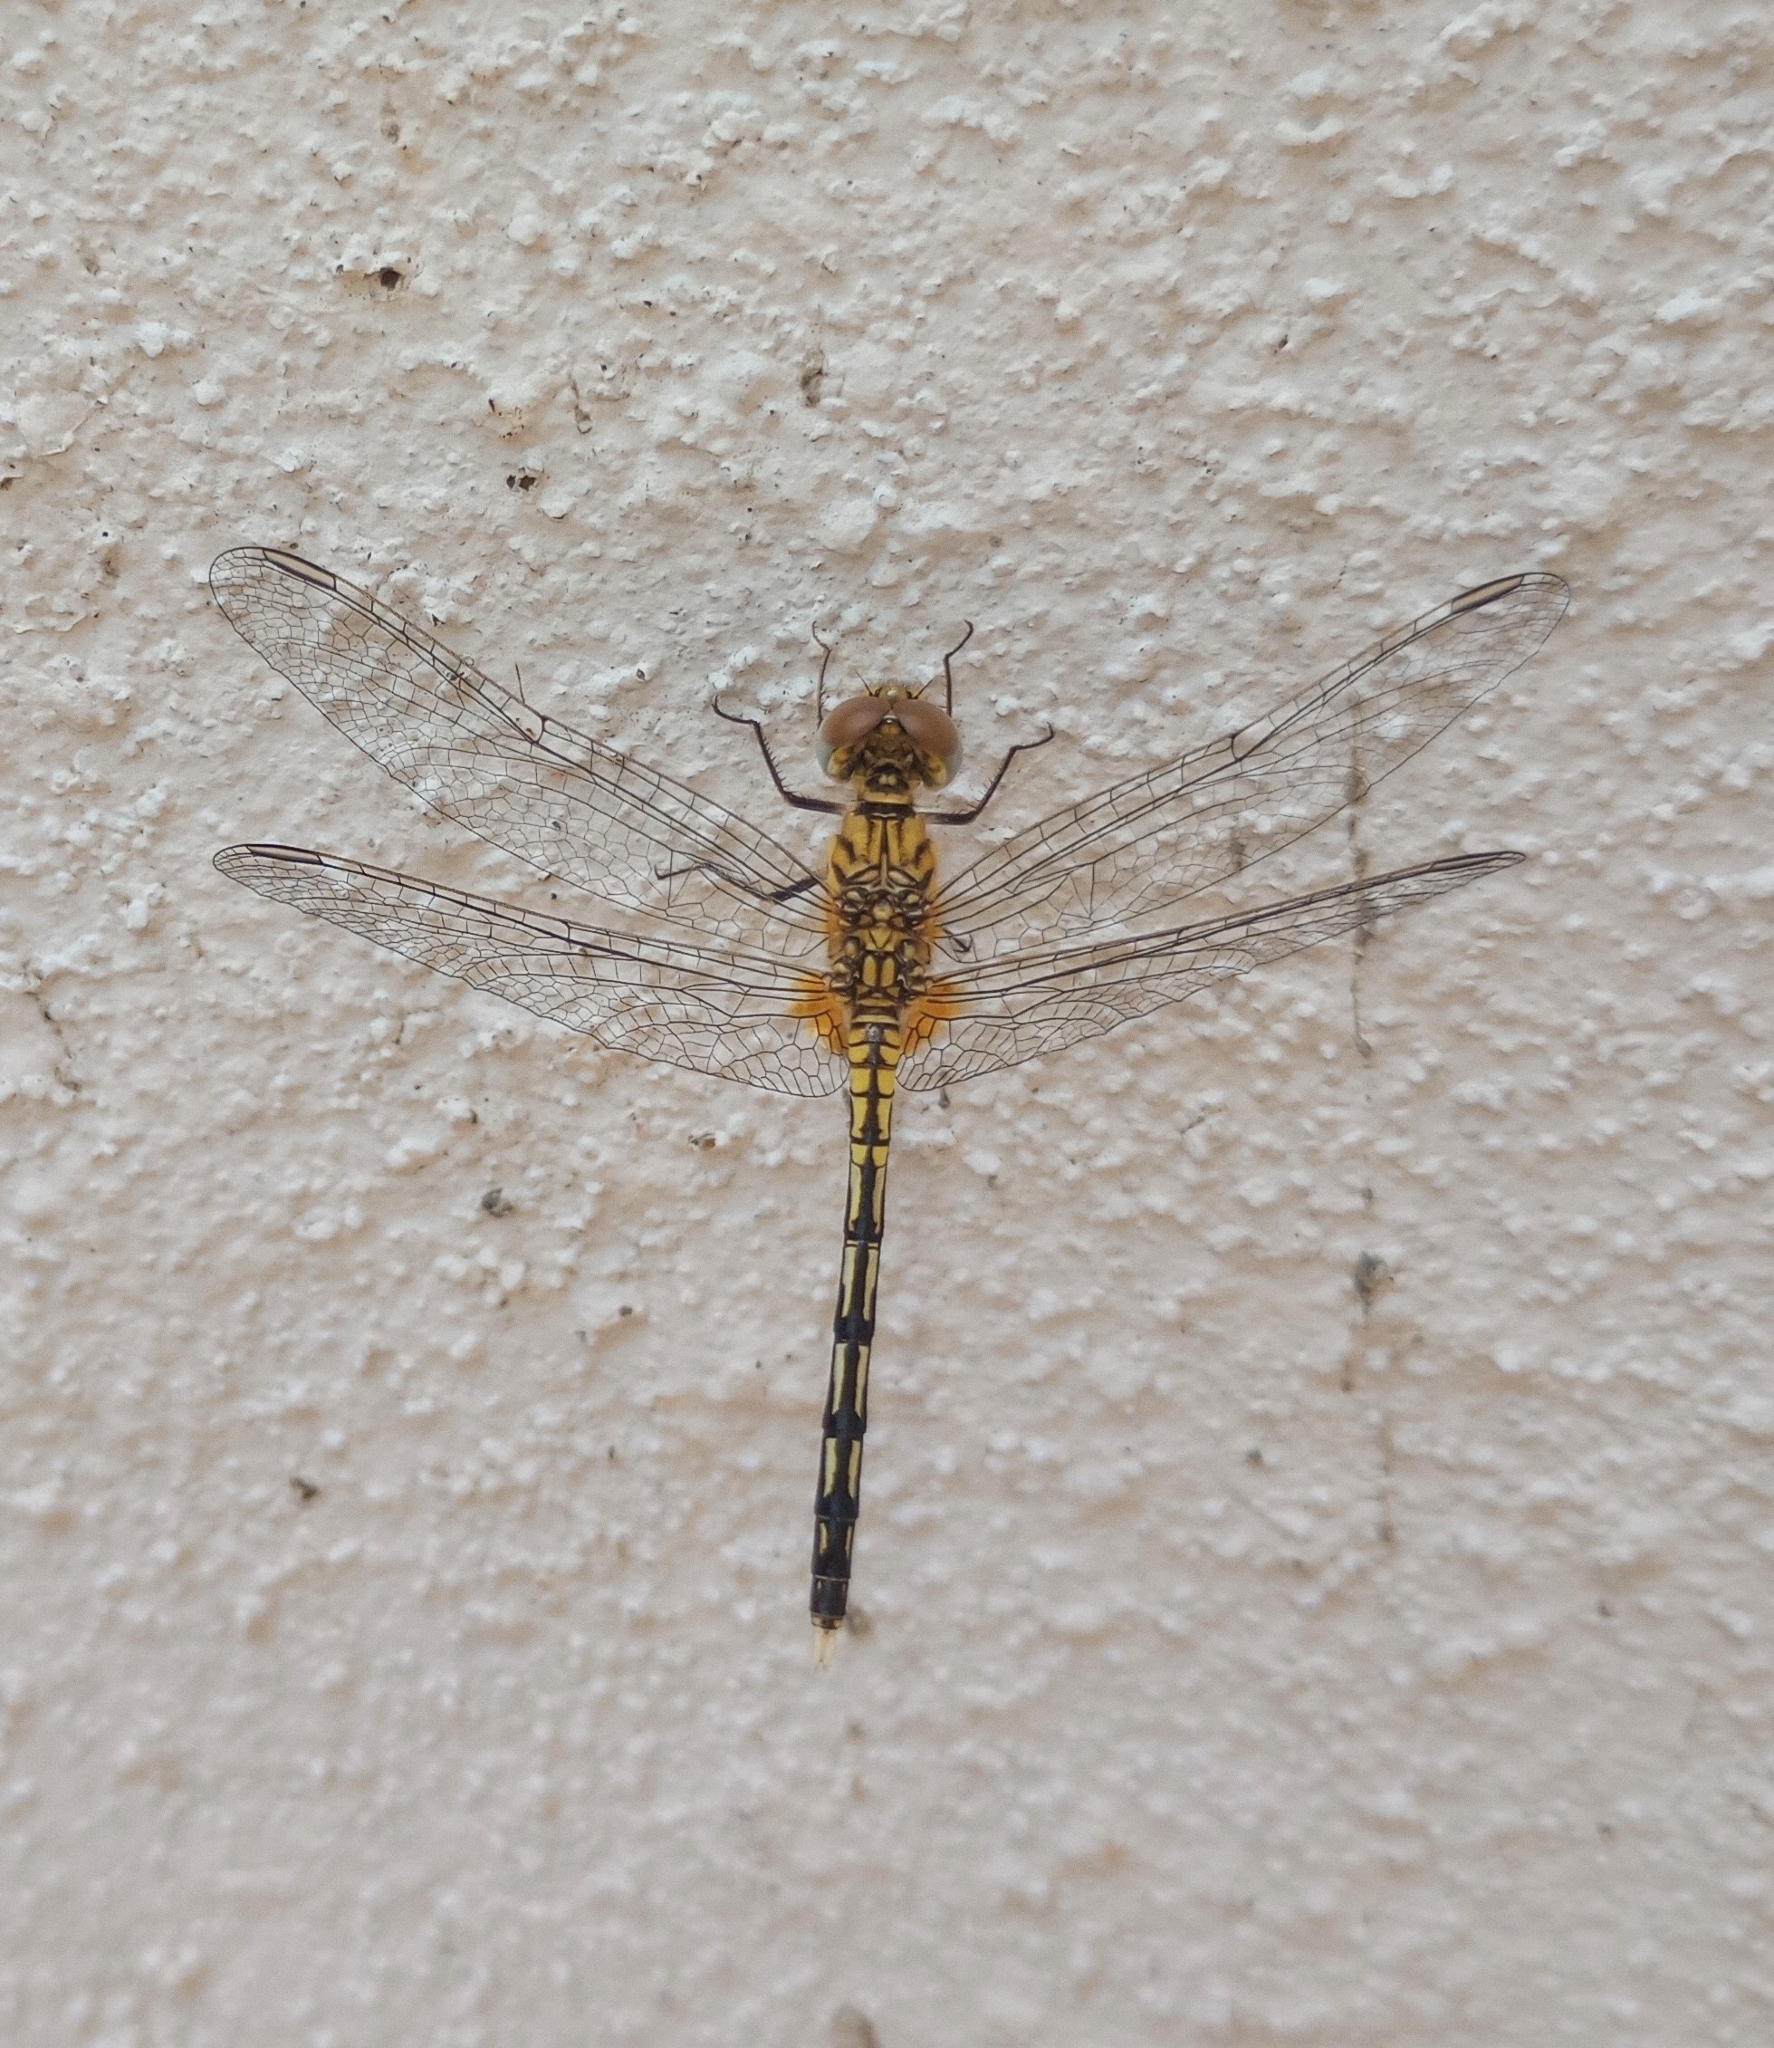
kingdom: Animalia
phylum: Arthropoda
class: Insecta
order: Odonata
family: Libellulidae
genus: Diplacodes
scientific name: Diplacodes trivialis
